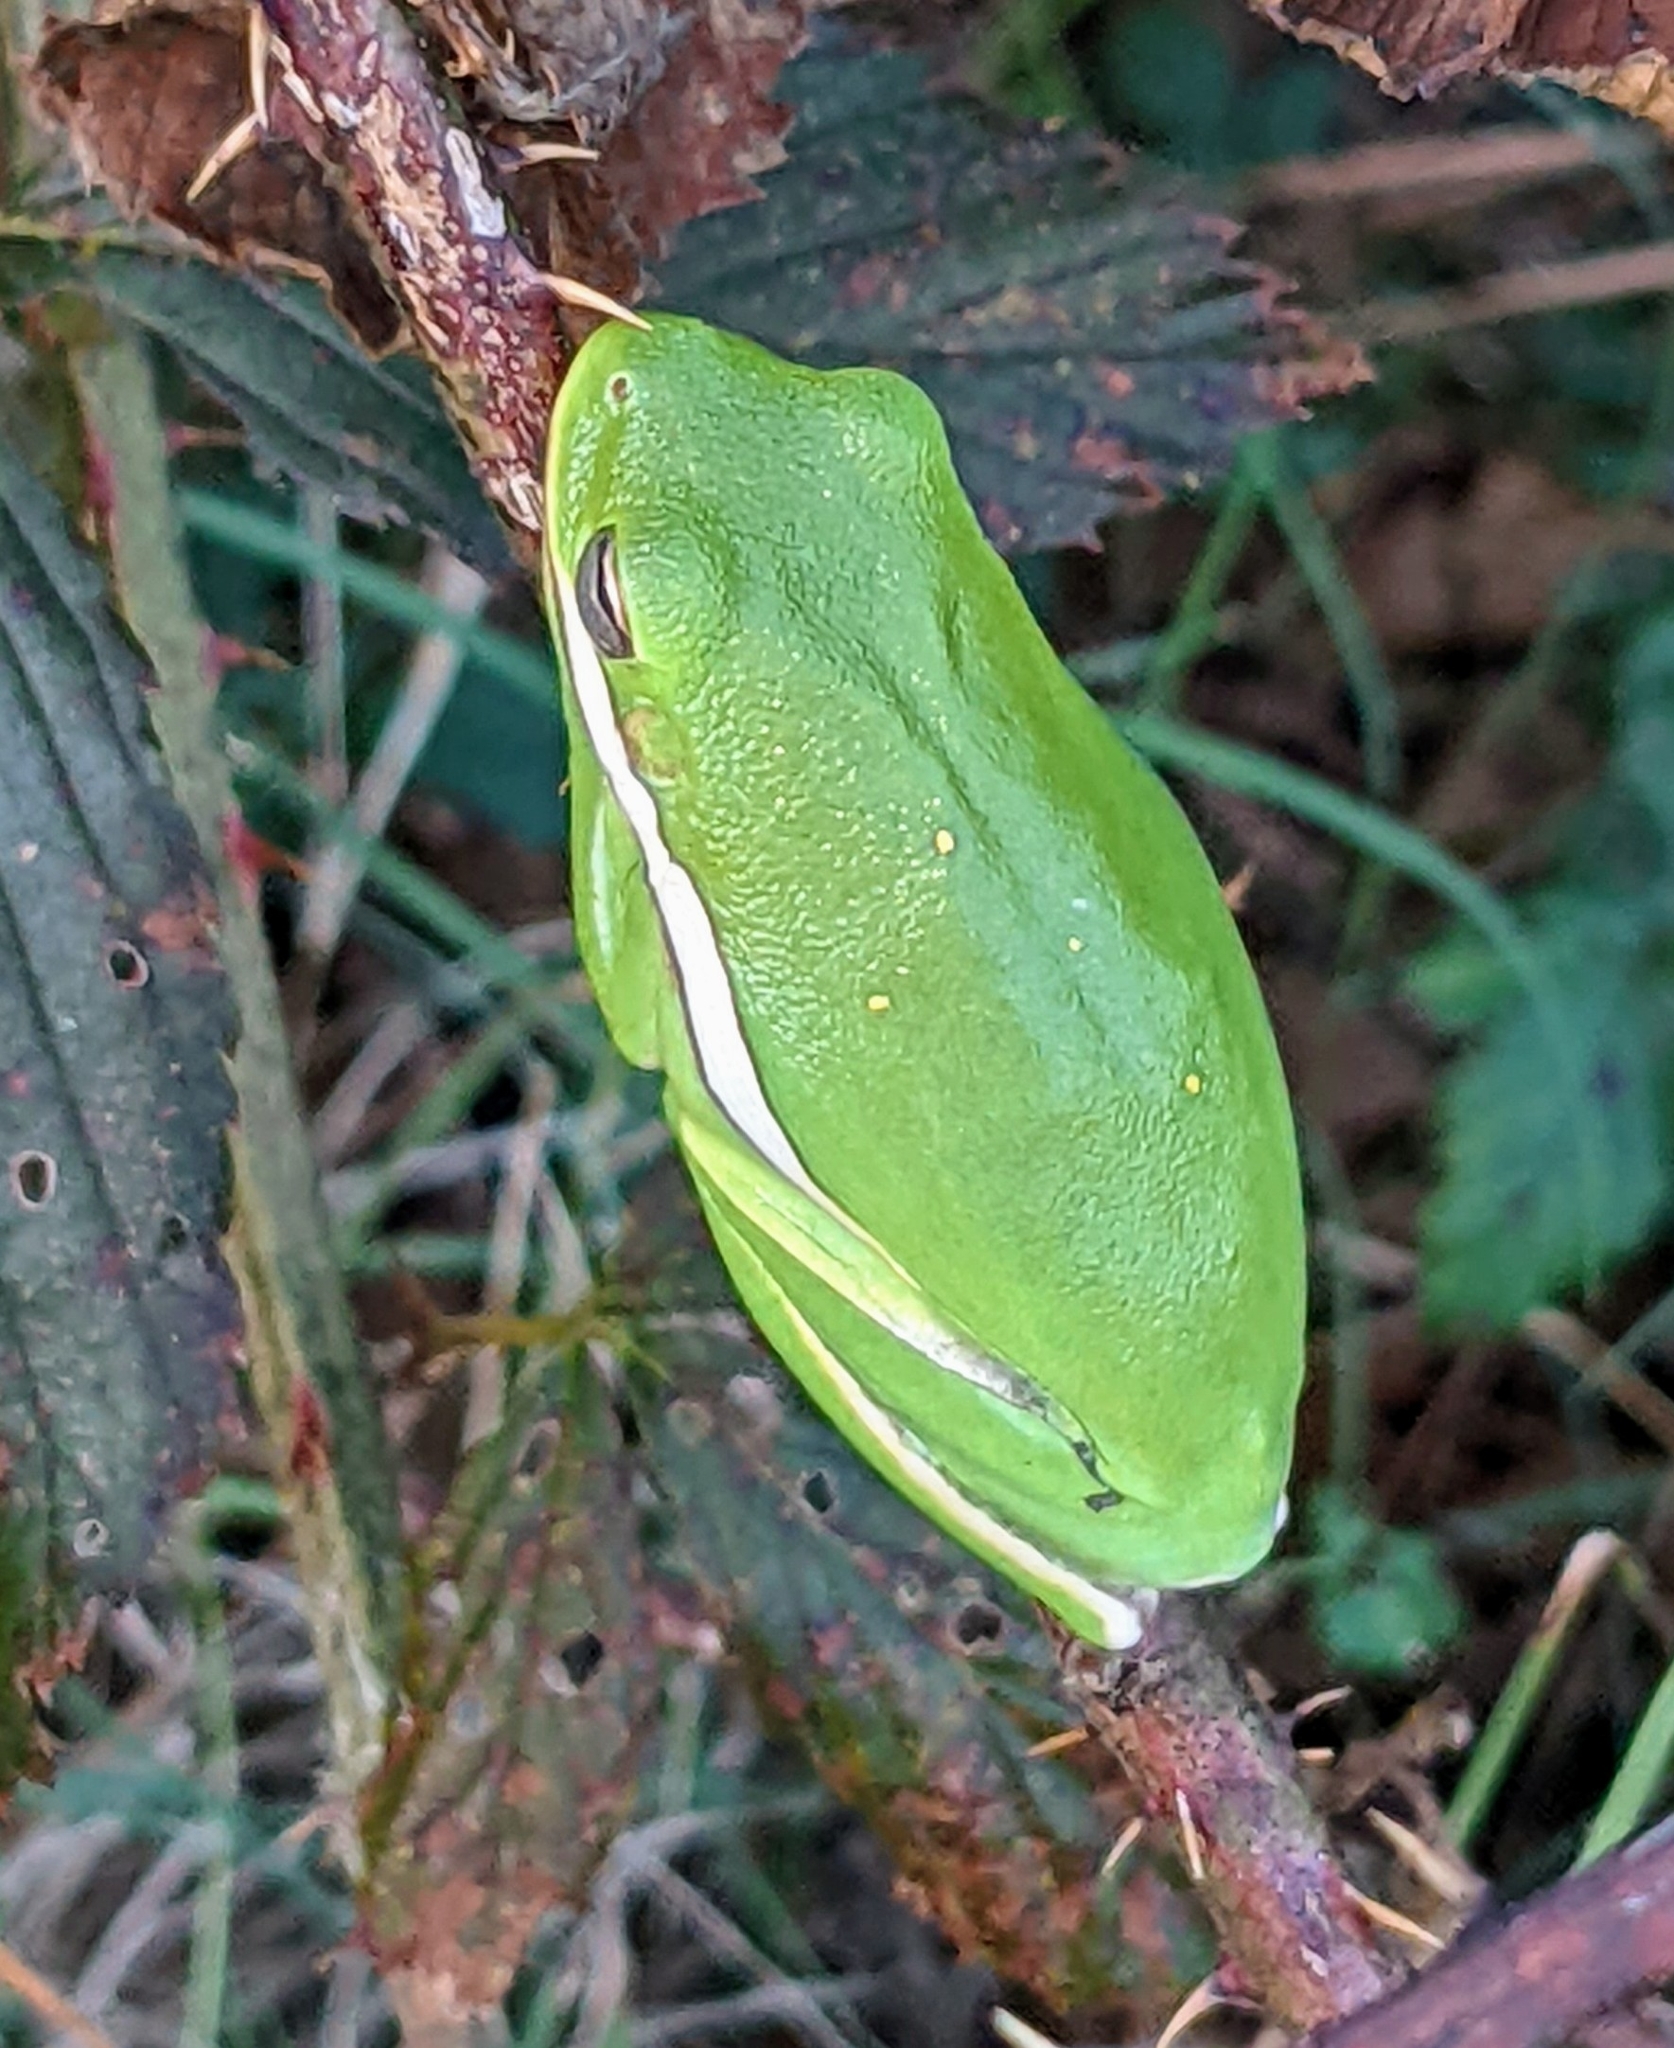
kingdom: Animalia
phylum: Chordata
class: Amphibia
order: Anura
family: Hylidae
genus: Dryophytes
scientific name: Dryophytes cinereus
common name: Green treefrog
